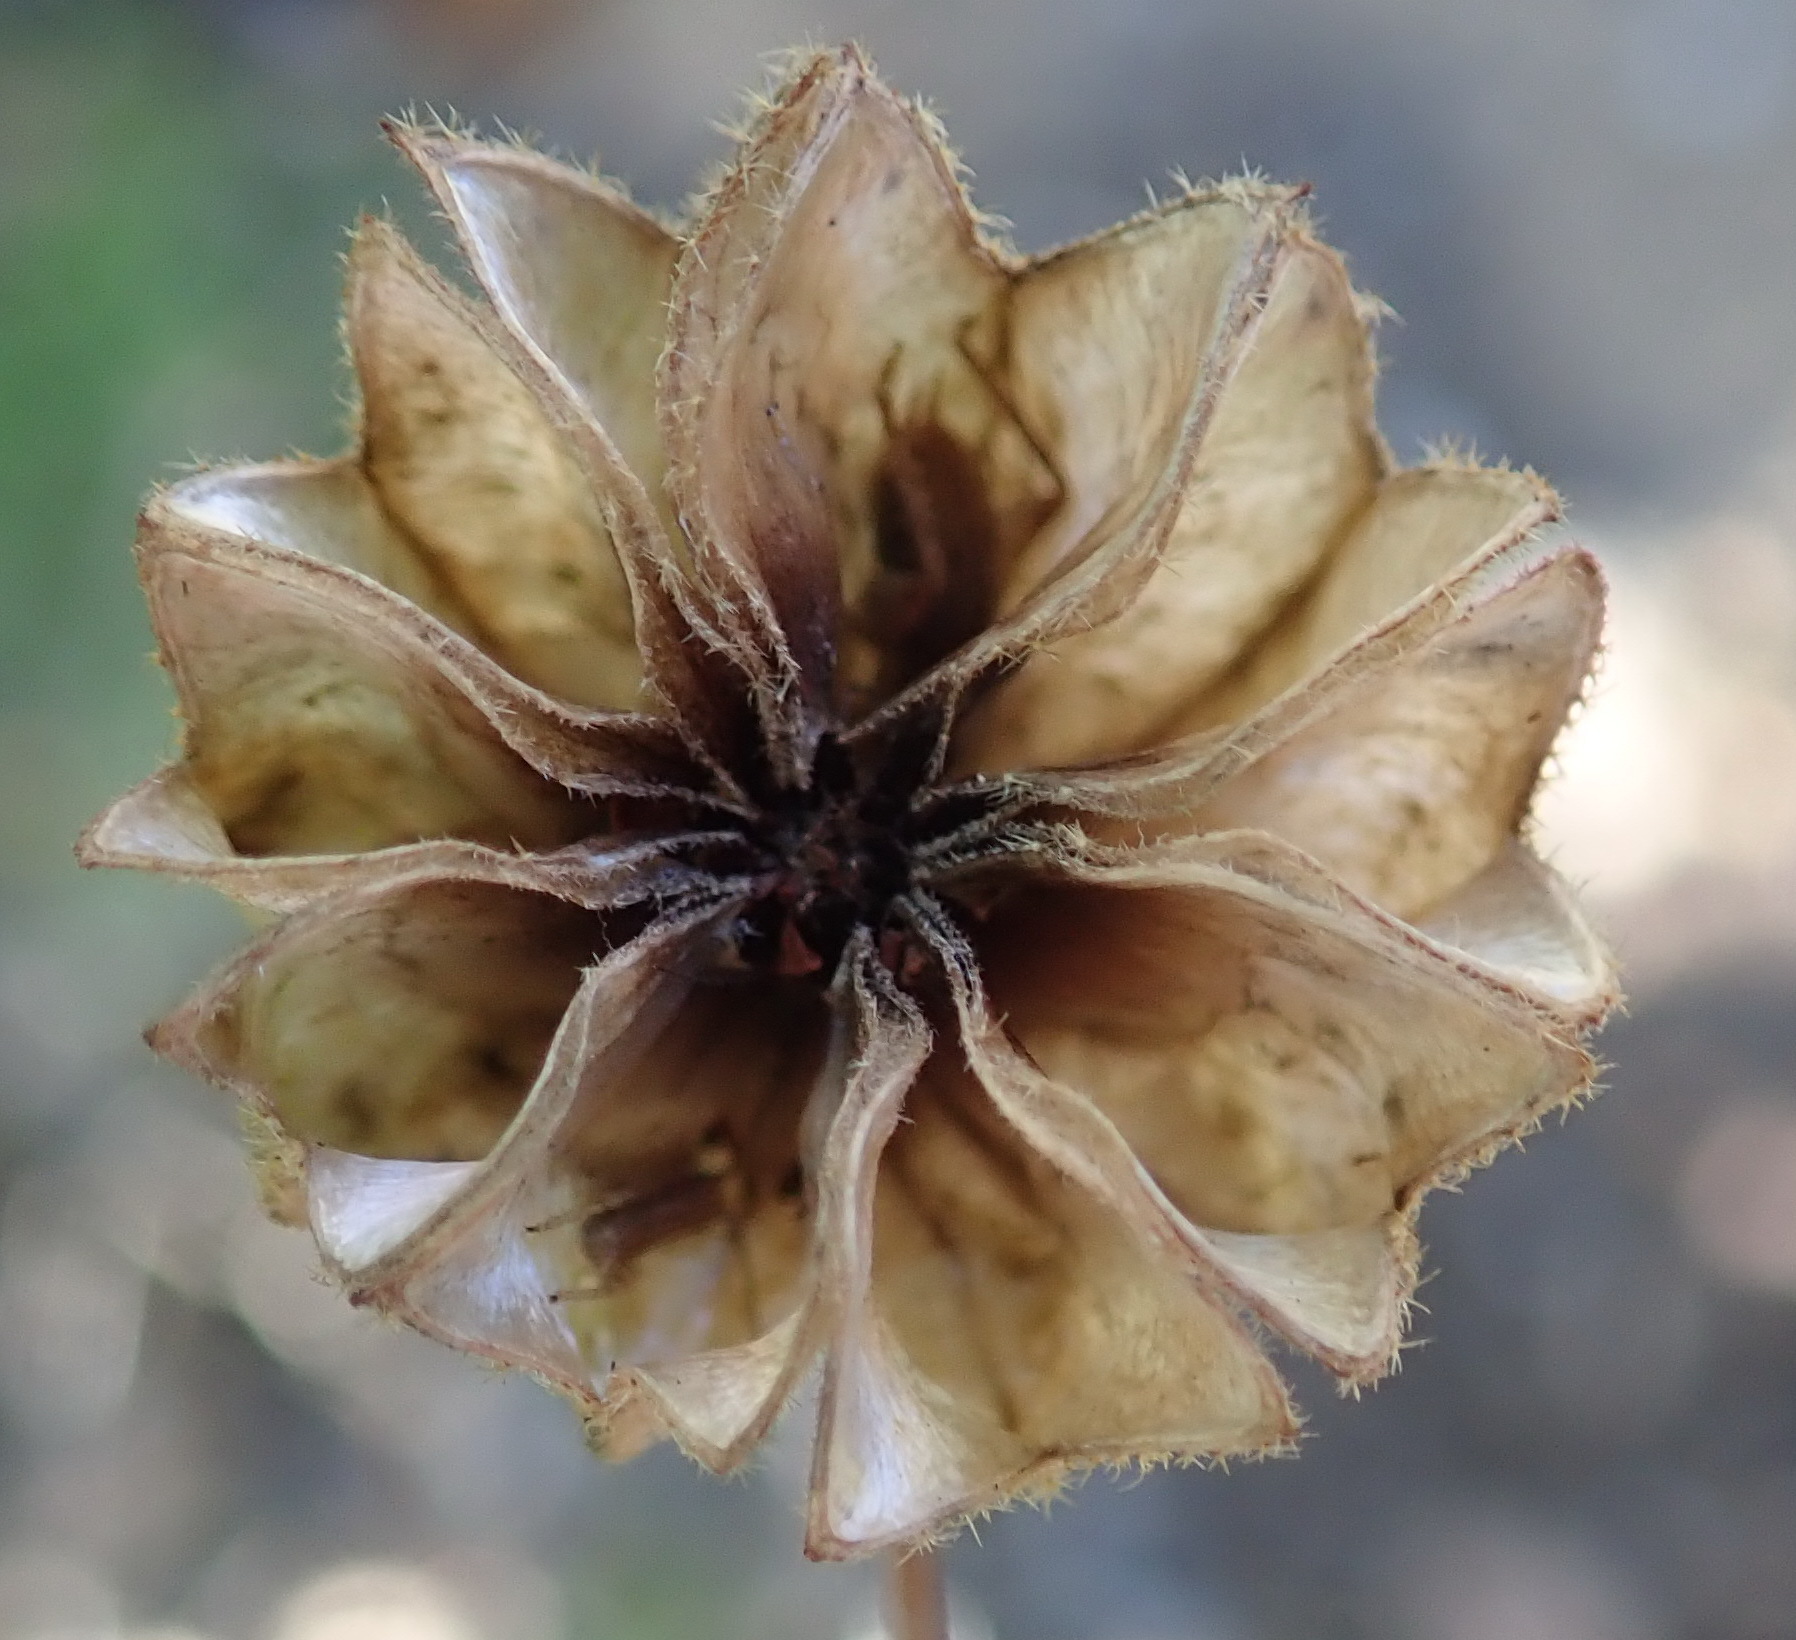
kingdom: Plantae
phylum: Tracheophyta
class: Magnoliopsida
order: Malvales
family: Malvaceae
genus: Abutilon
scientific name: Abutilon sonneratianum
